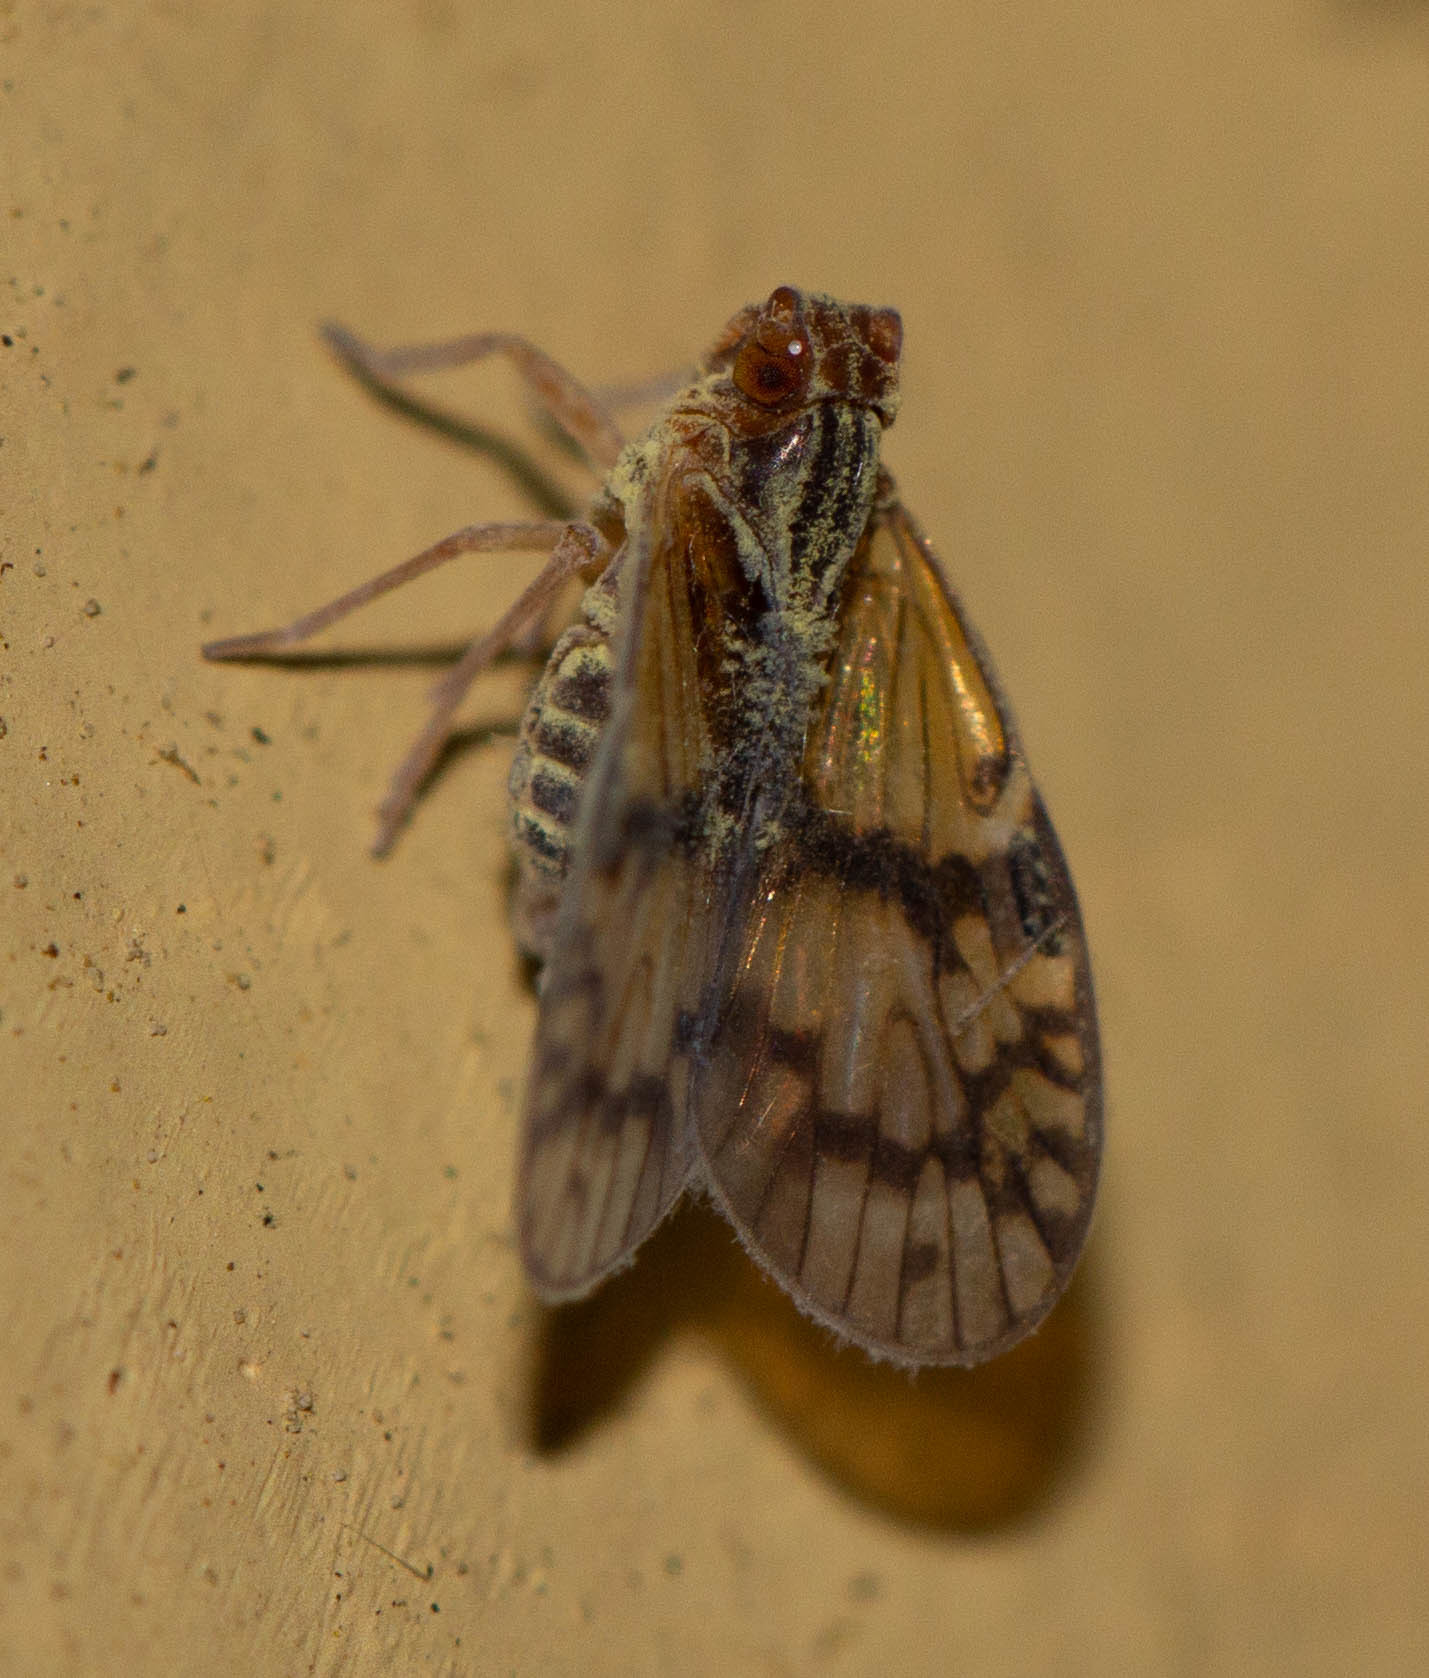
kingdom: Animalia
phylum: Arthropoda
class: Insecta
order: Hemiptera
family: Cixiidae
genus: Bothriocera
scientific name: Bothriocera datuna
